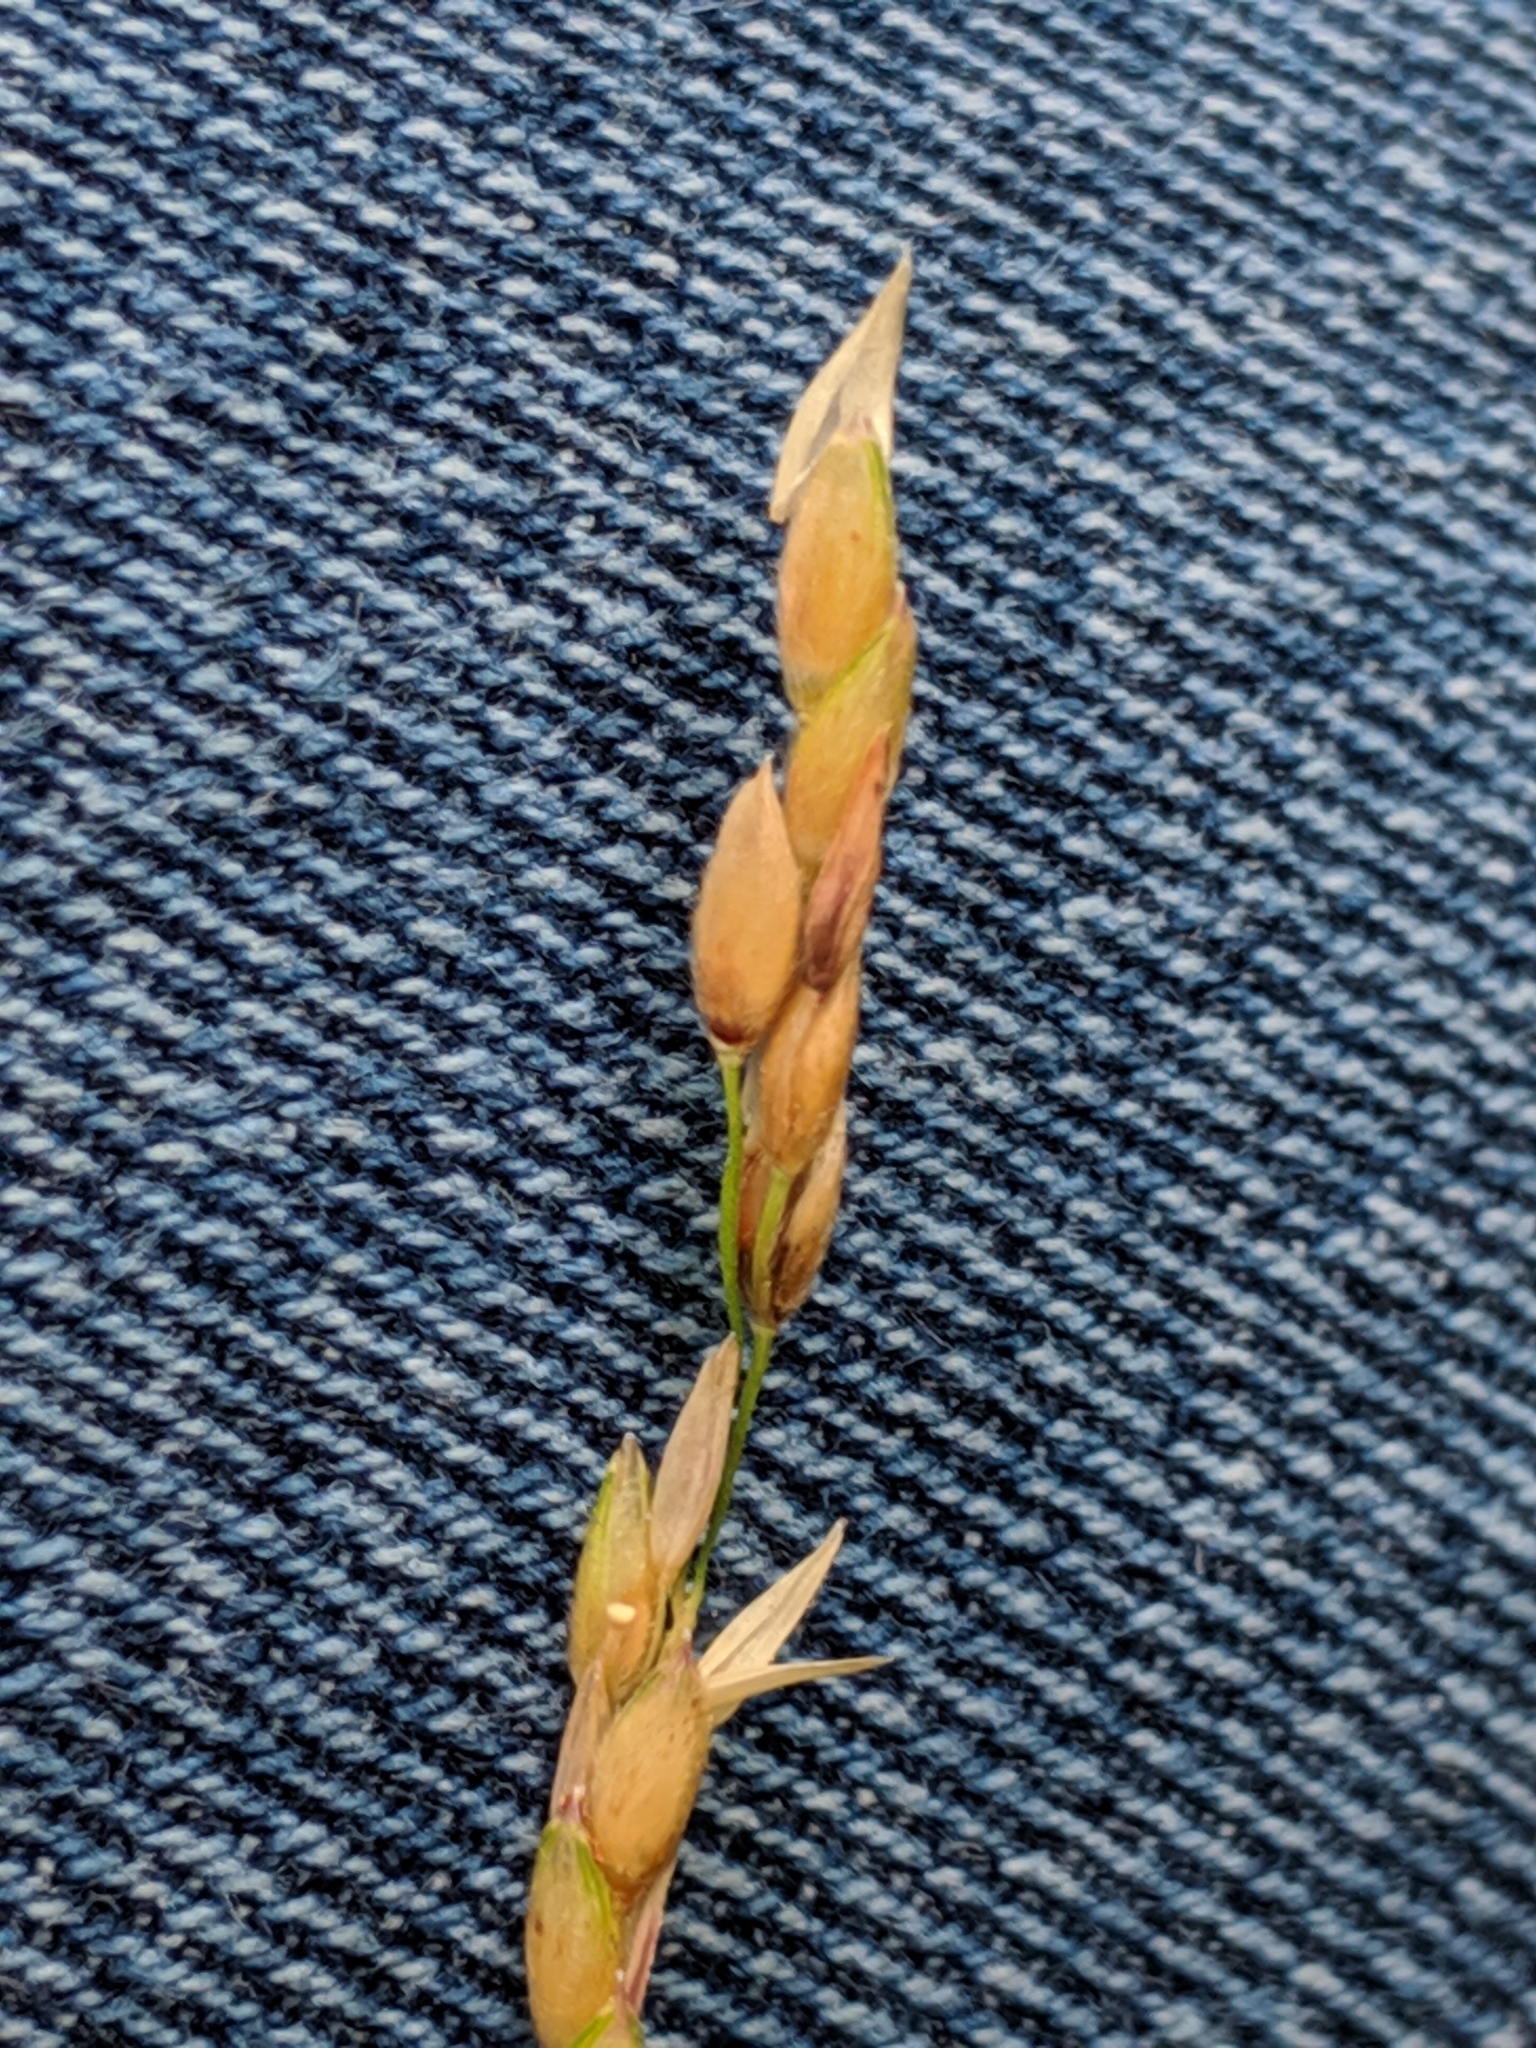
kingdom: Plantae
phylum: Tracheophyta
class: Liliopsida
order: Poales
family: Poaceae
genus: Sorghum
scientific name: Sorghum halepense
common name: Johnson-grass
